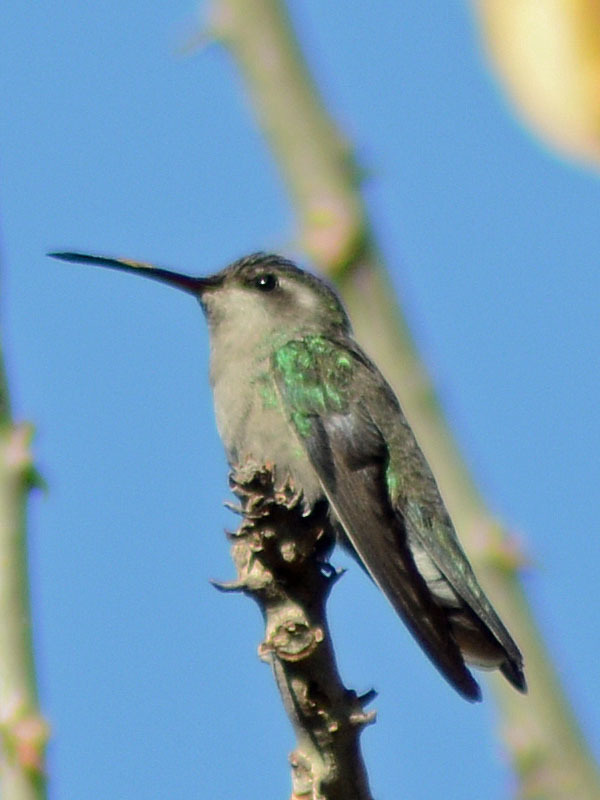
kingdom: Animalia
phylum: Chordata
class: Aves
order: Apodiformes
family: Trochilidae
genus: Cynanthus
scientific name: Cynanthus latirostris
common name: Broad-billed hummingbird
